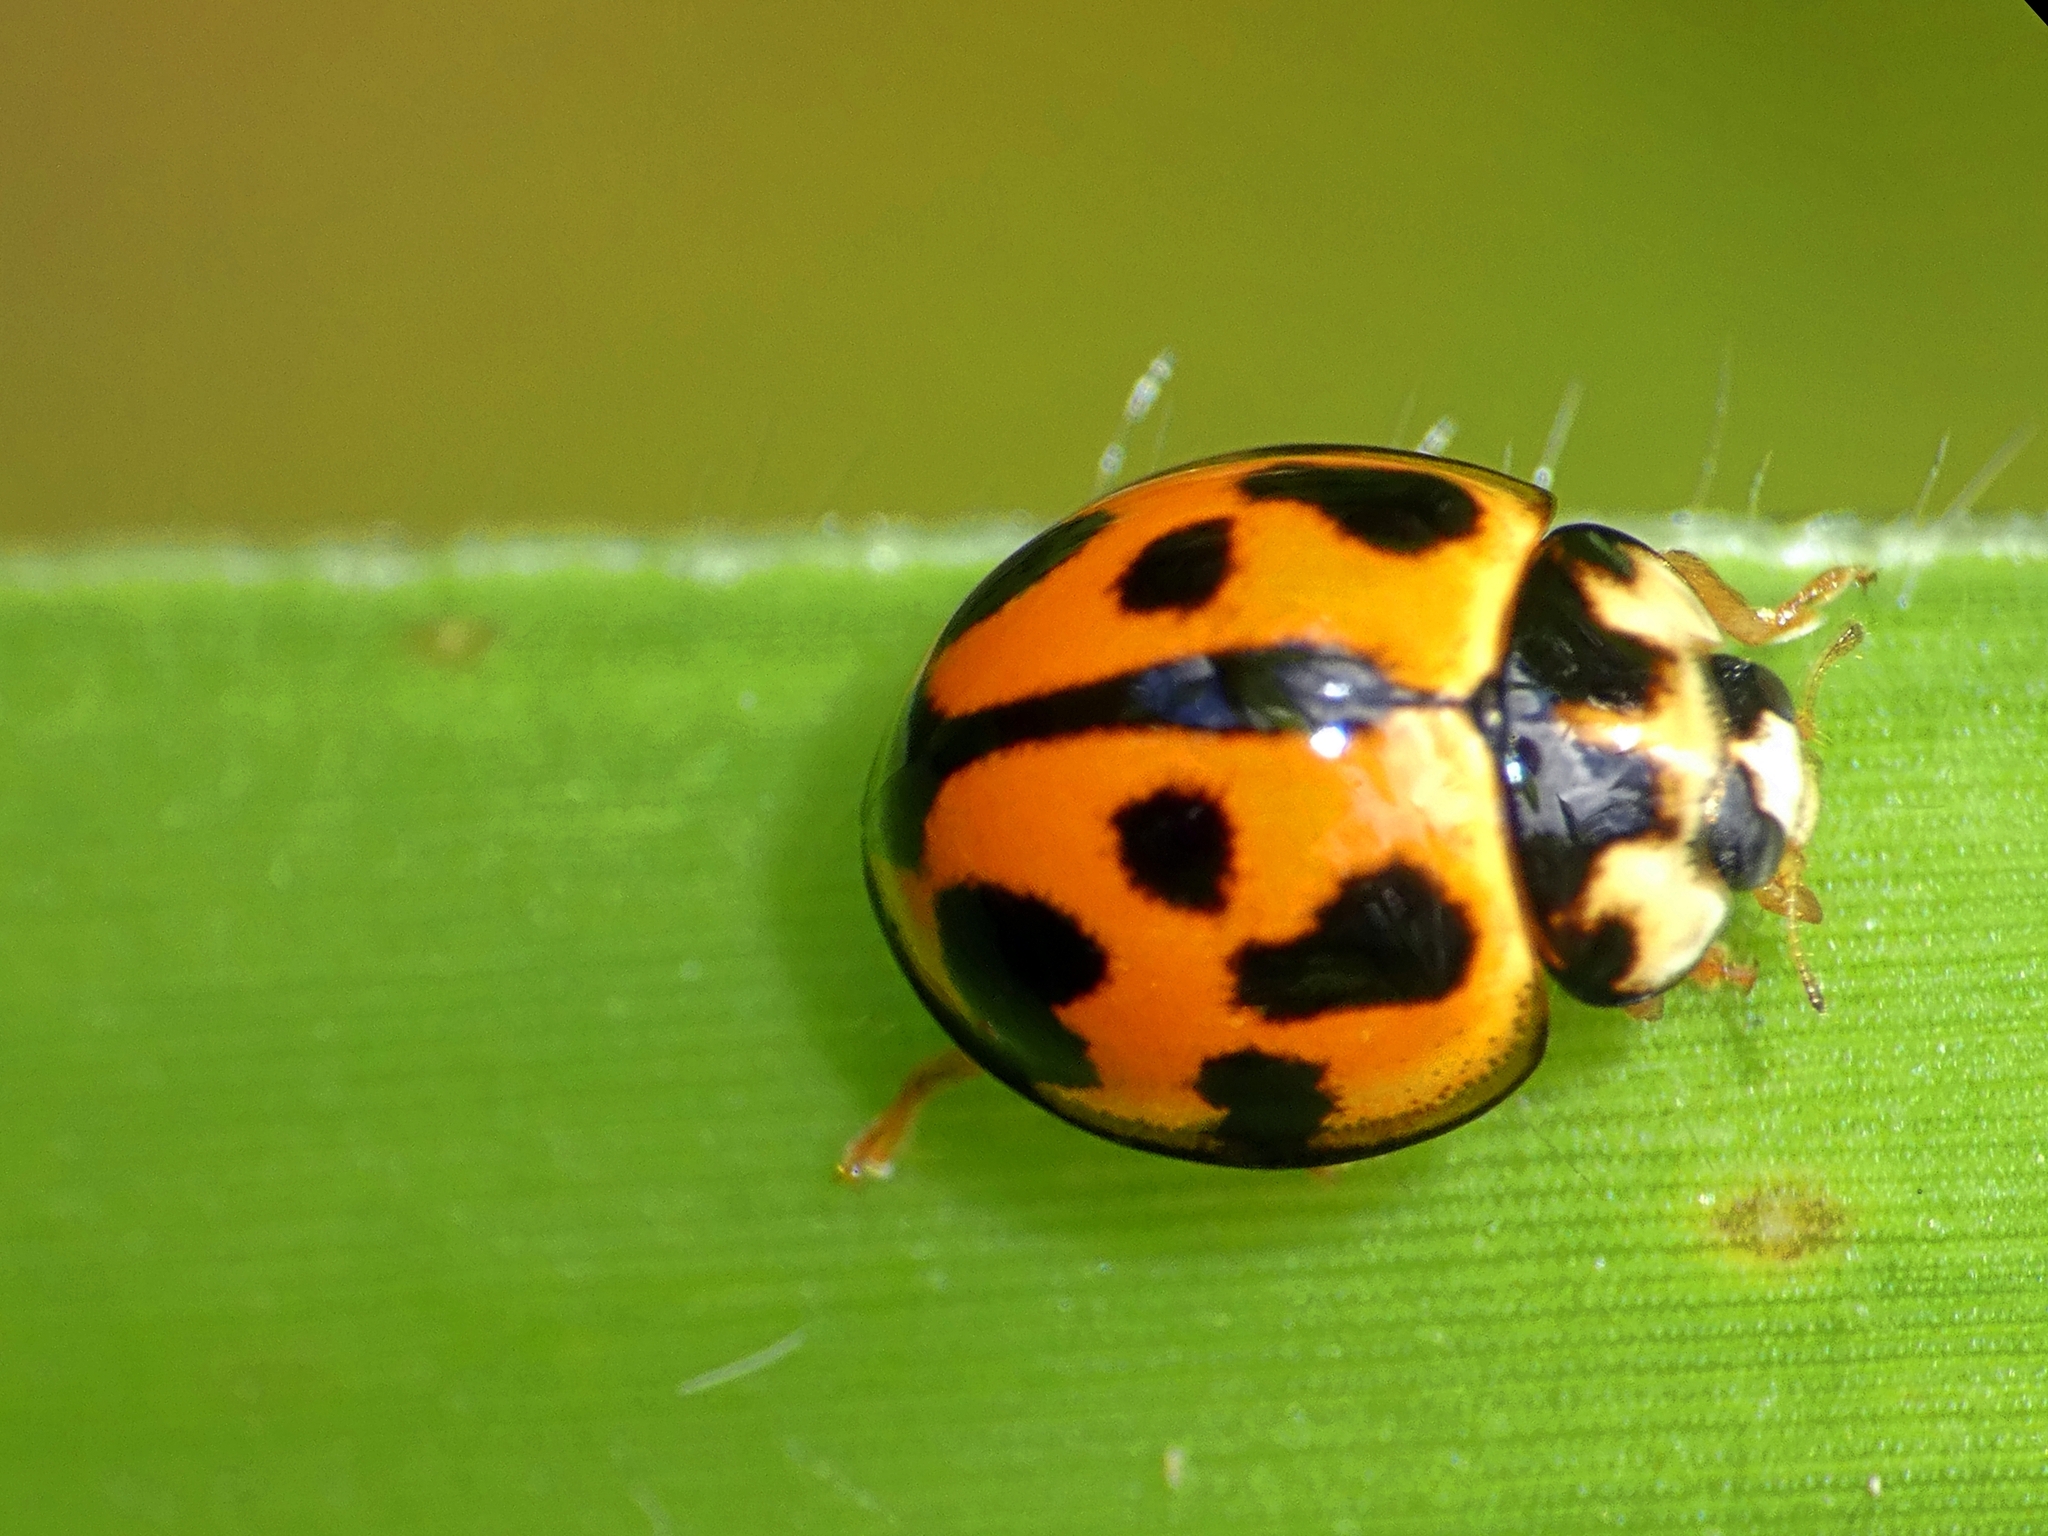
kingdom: Animalia
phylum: Arthropoda
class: Insecta
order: Coleoptera
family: Coccinellidae
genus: Coelophora
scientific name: Coelophora inaequalis
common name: Common australian lady beetle
